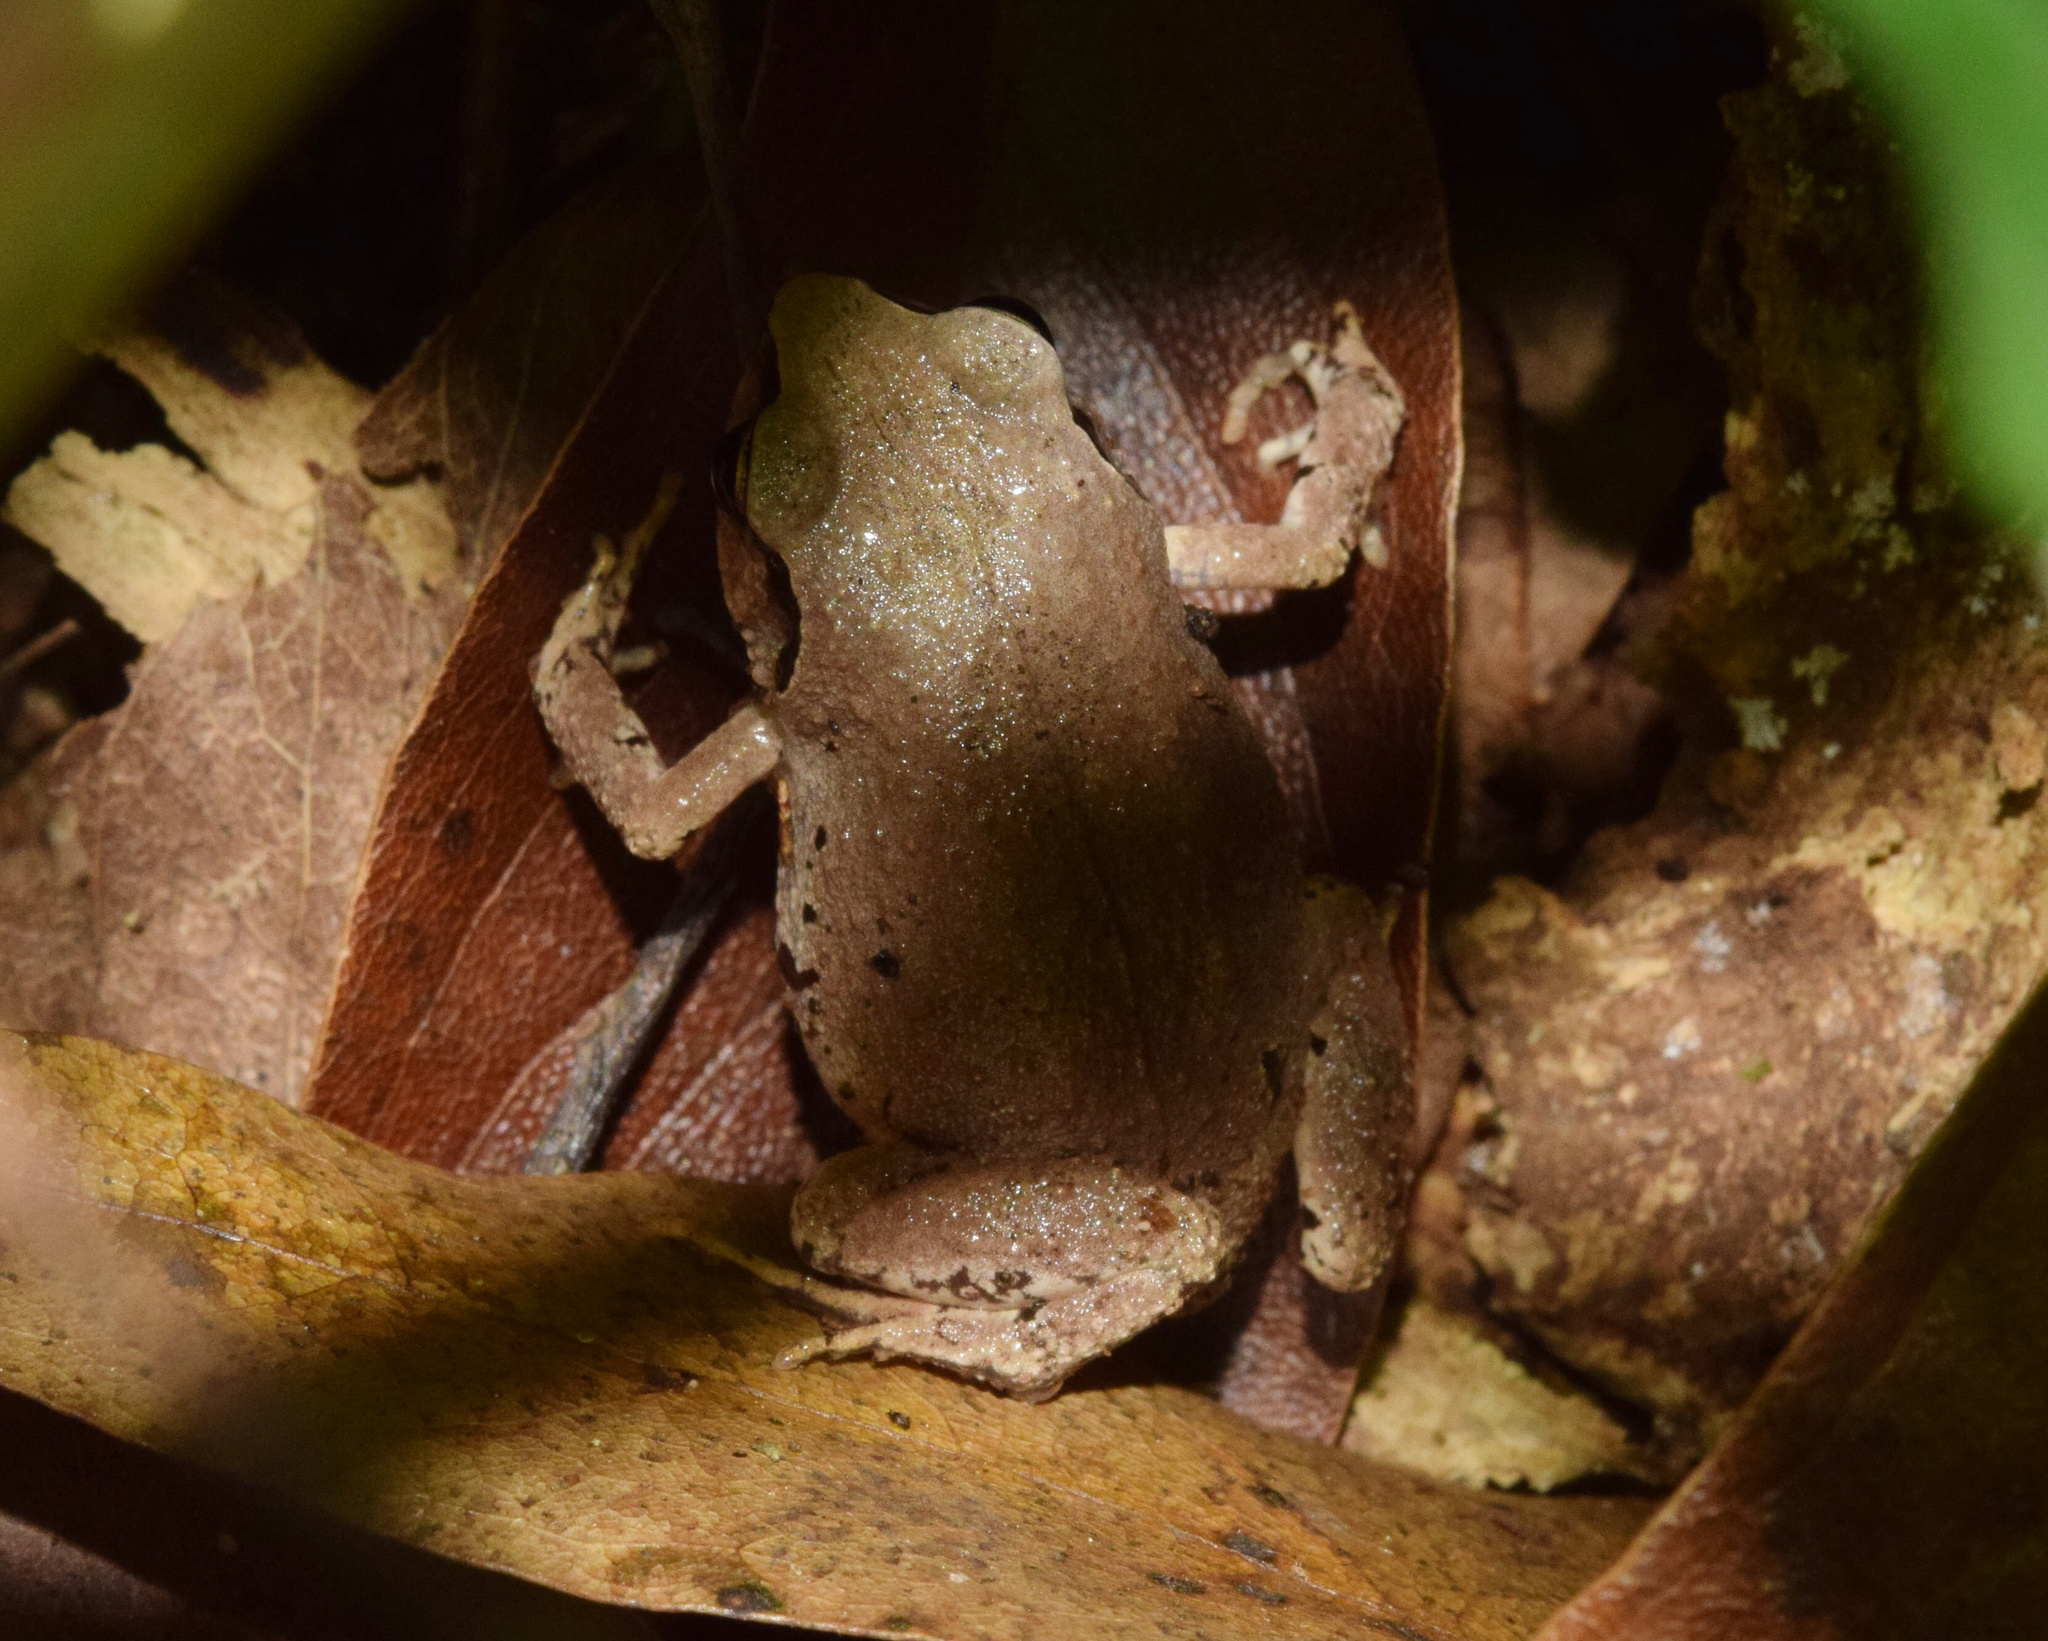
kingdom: Animalia
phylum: Chordata
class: Amphibia
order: Anura
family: Arthroleptidae
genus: Arthroleptis
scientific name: Arthroleptis wahlbergii
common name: Bush squeaker
